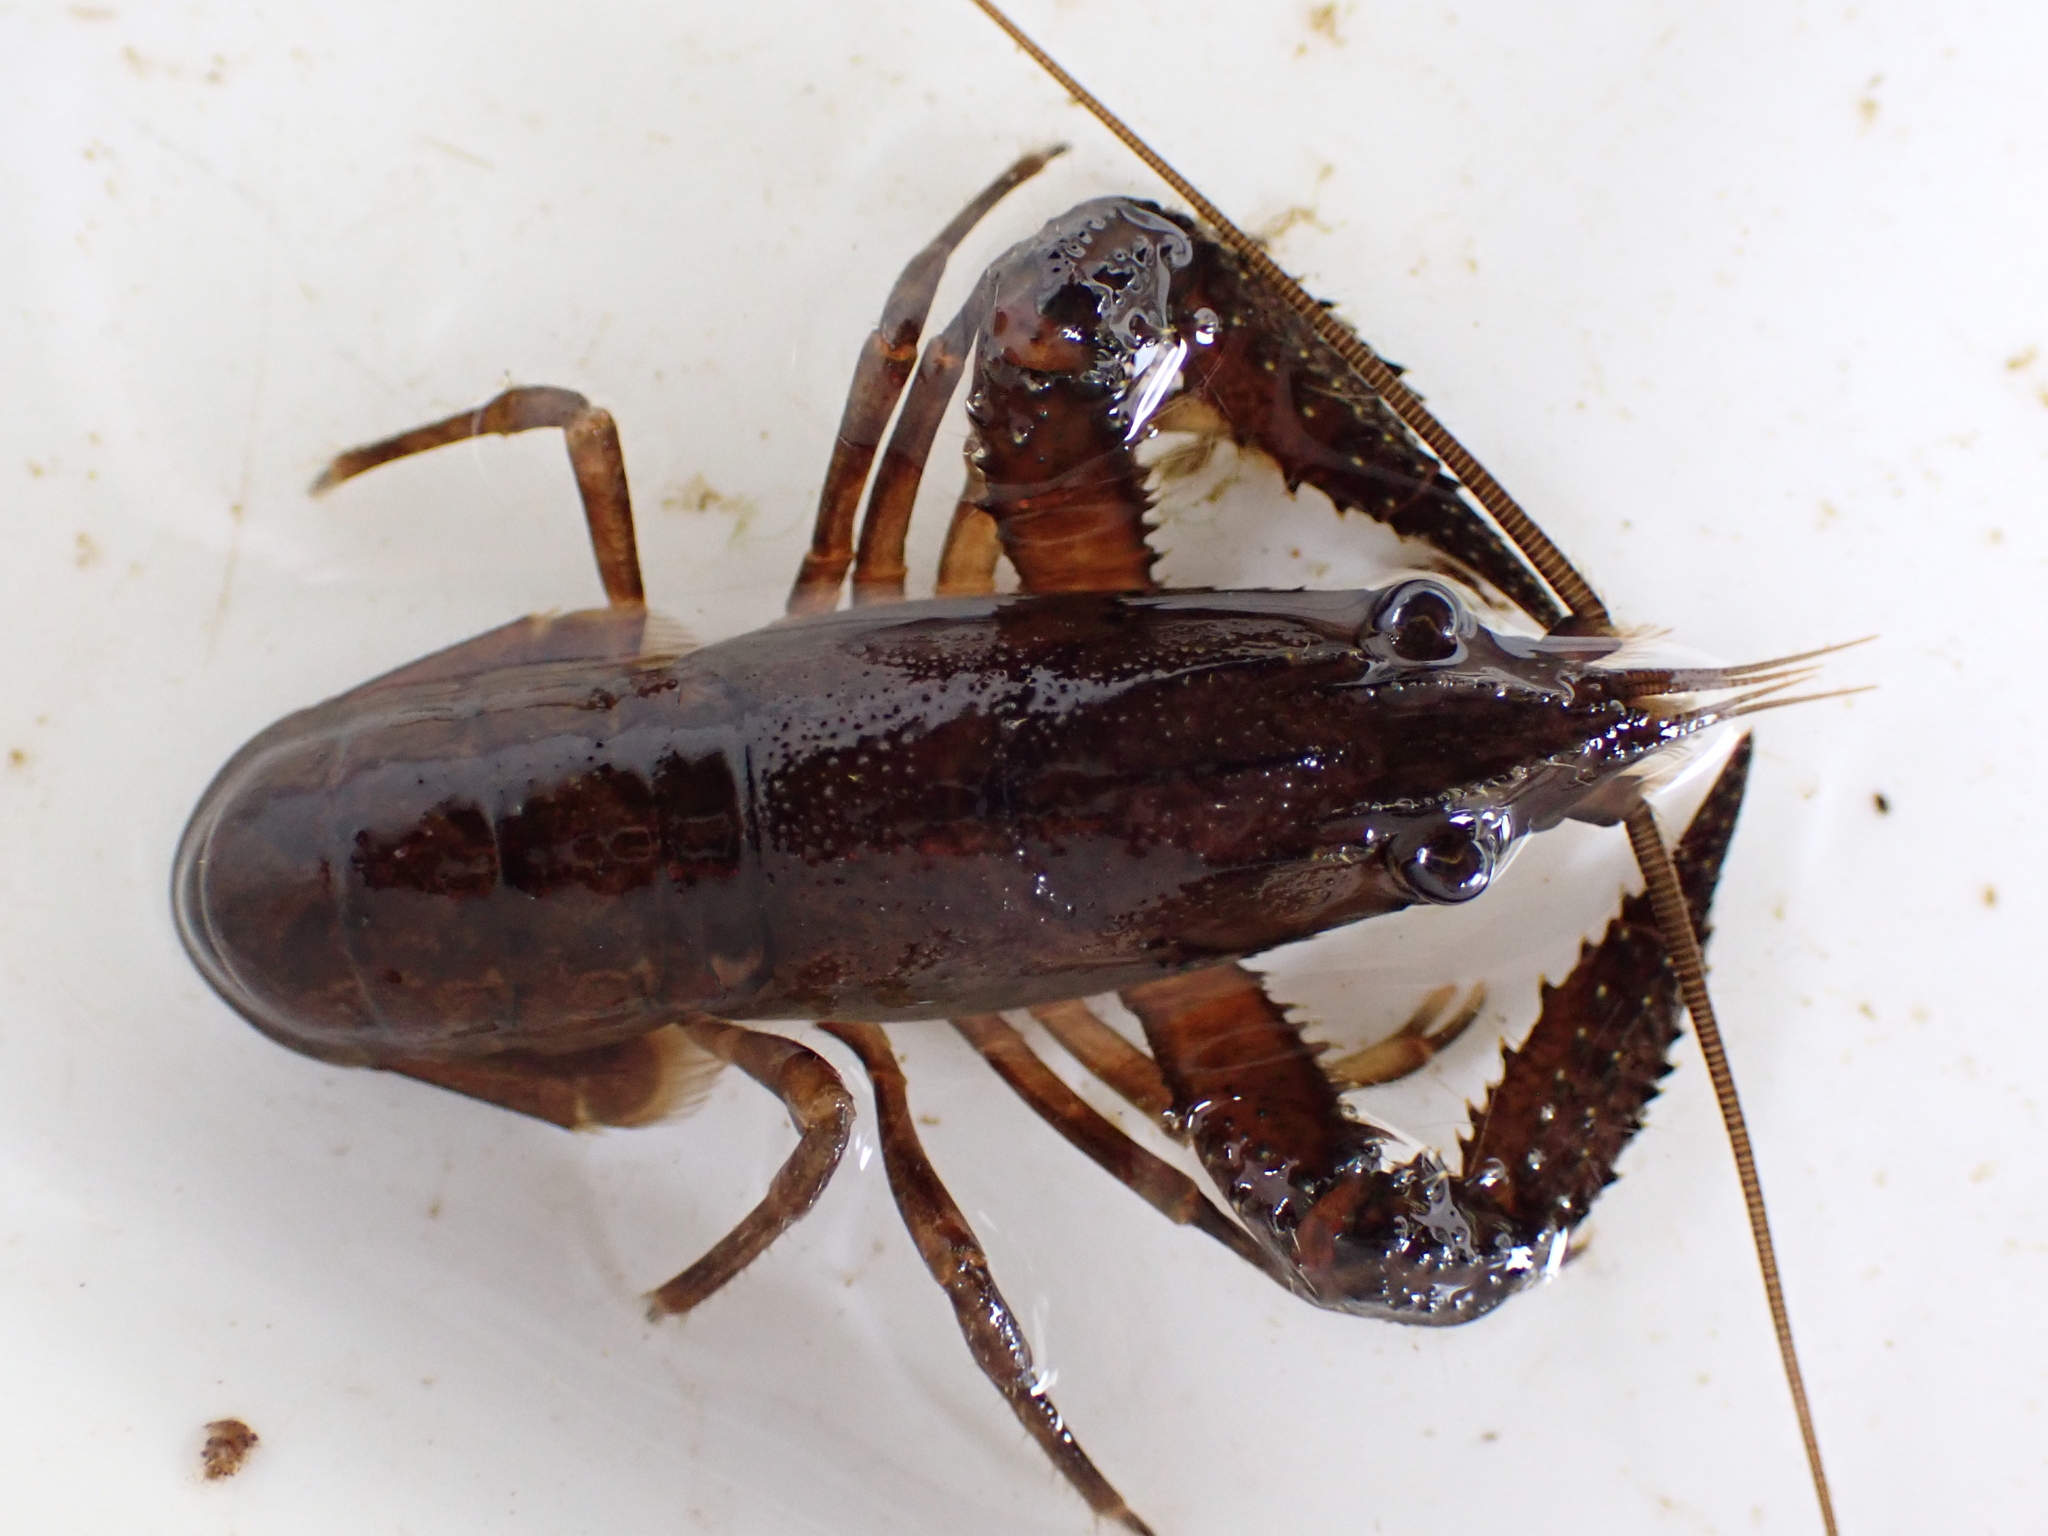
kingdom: Animalia
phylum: Arthropoda
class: Malacostraca
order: Decapoda
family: Parastacidae
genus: Paranephrops
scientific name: Paranephrops planifrons
